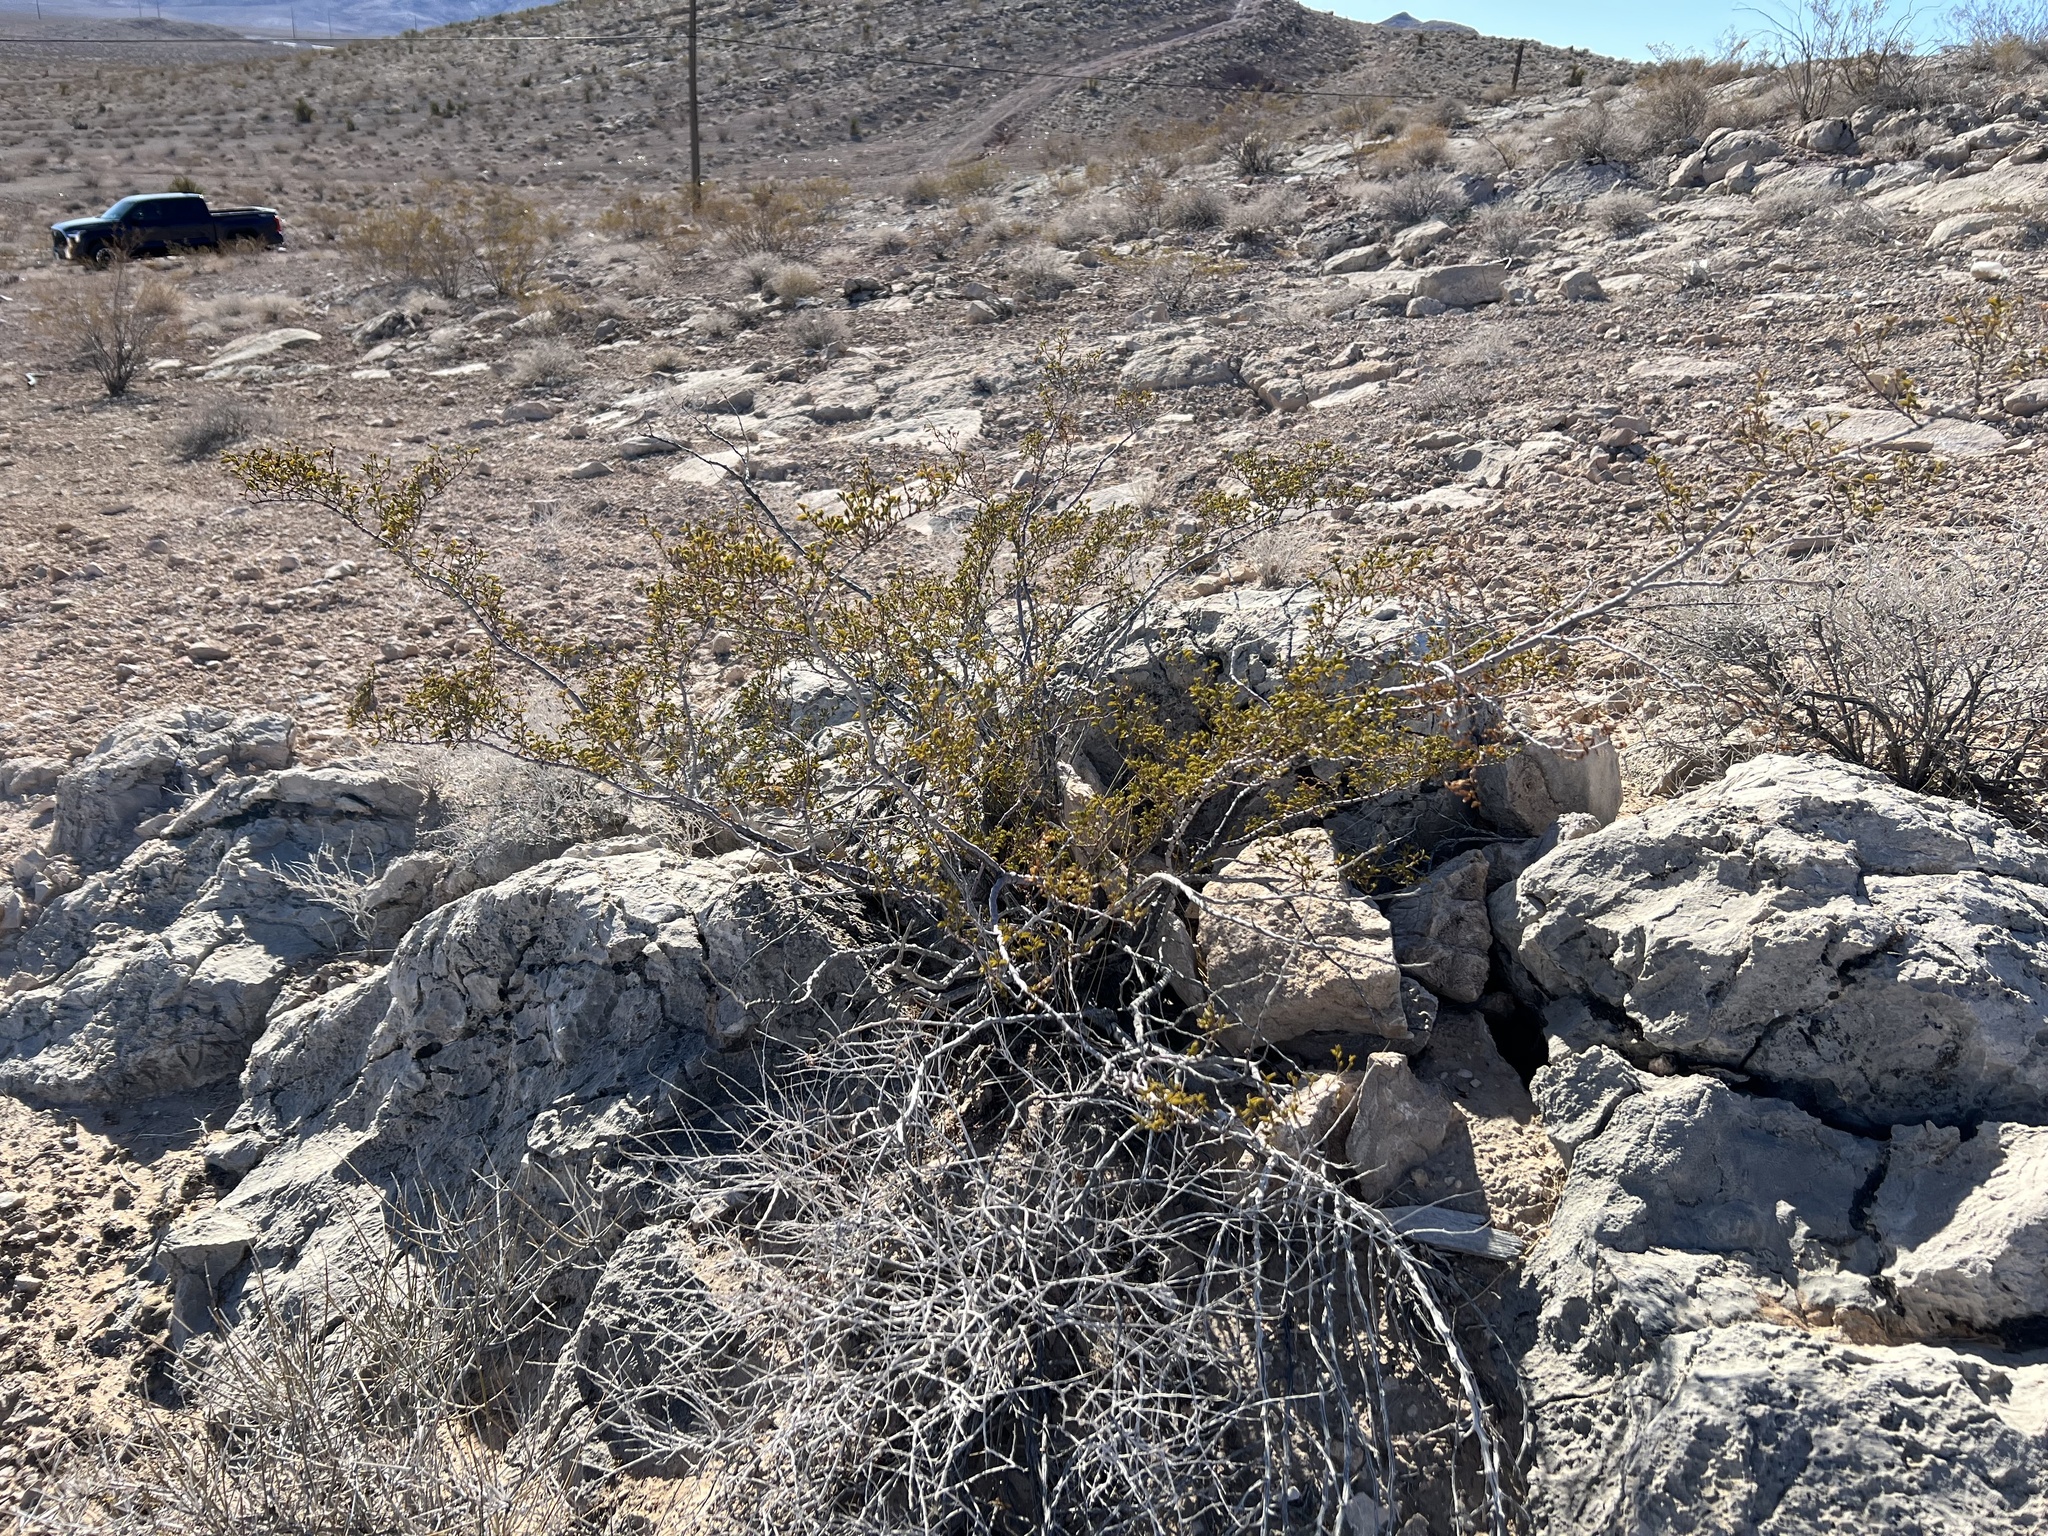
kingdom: Plantae
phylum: Tracheophyta
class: Magnoliopsida
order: Zygophyllales
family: Zygophyllaceae
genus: Larrea
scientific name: Larrea tridentata
